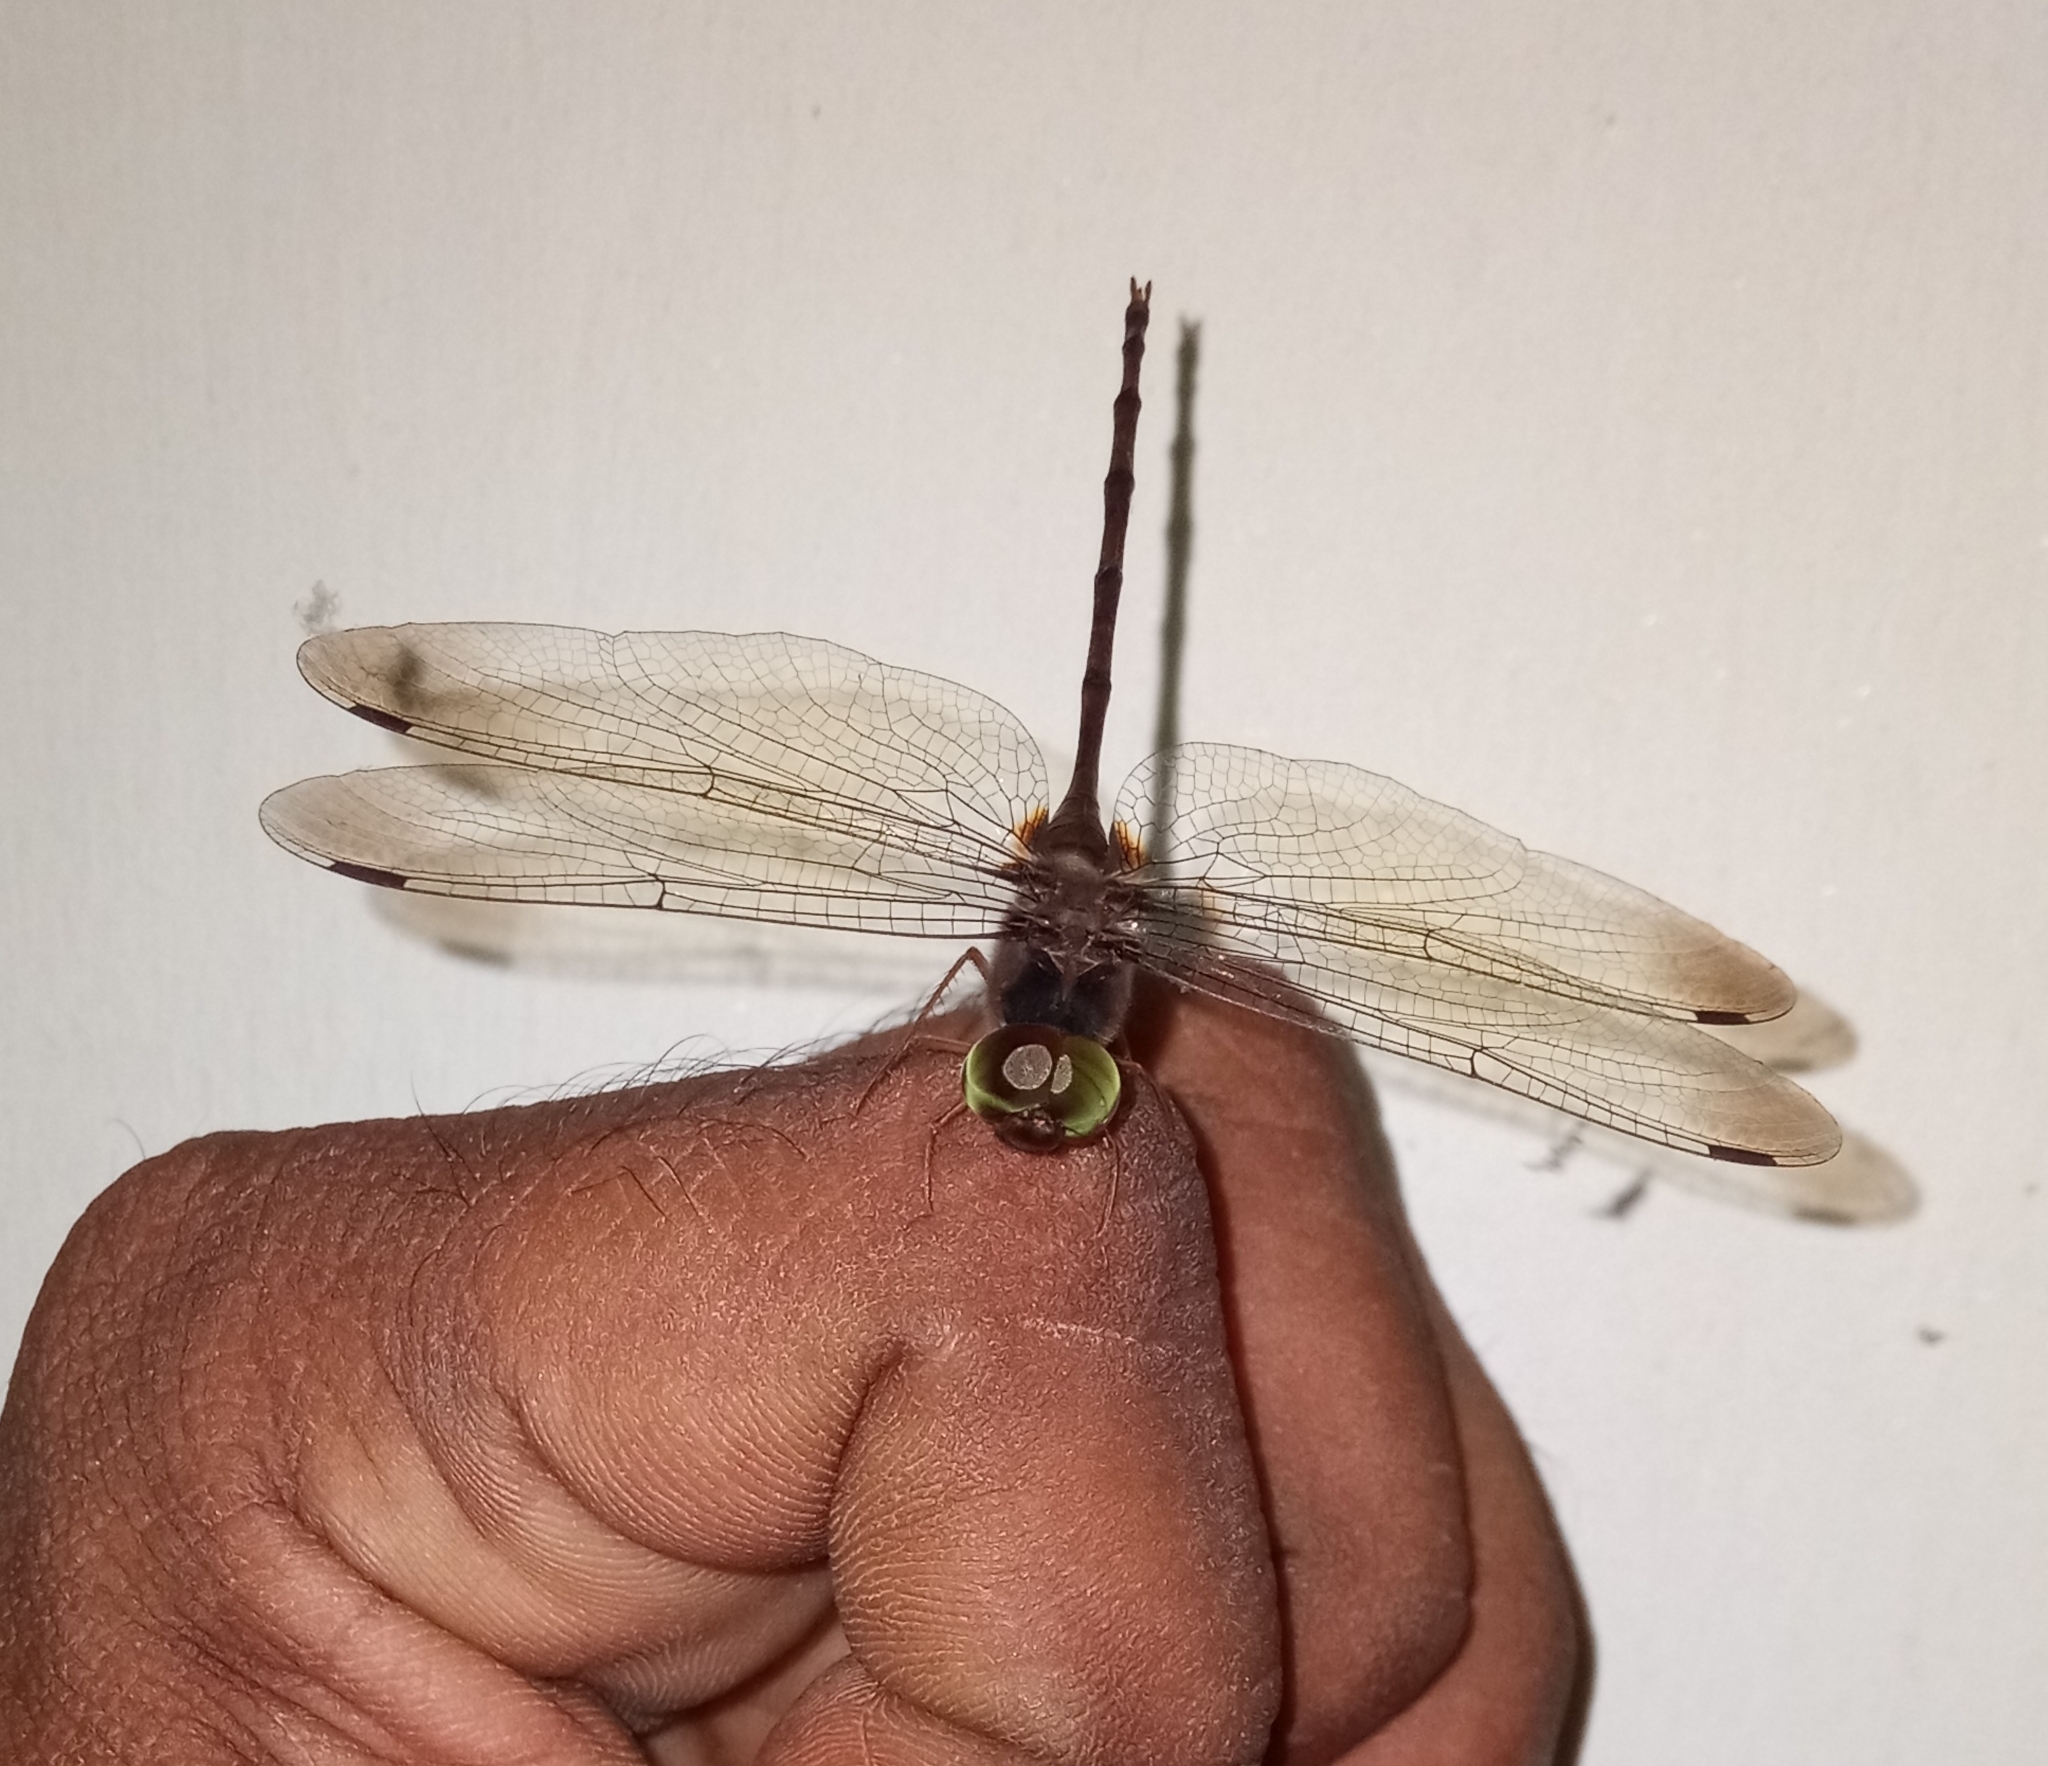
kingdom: Animalia
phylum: Arthropoda
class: Insecta
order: Odonata
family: Libellulidae
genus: Zyxomma
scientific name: Zyxomma petiolatum
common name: Dingy dusk-darter
